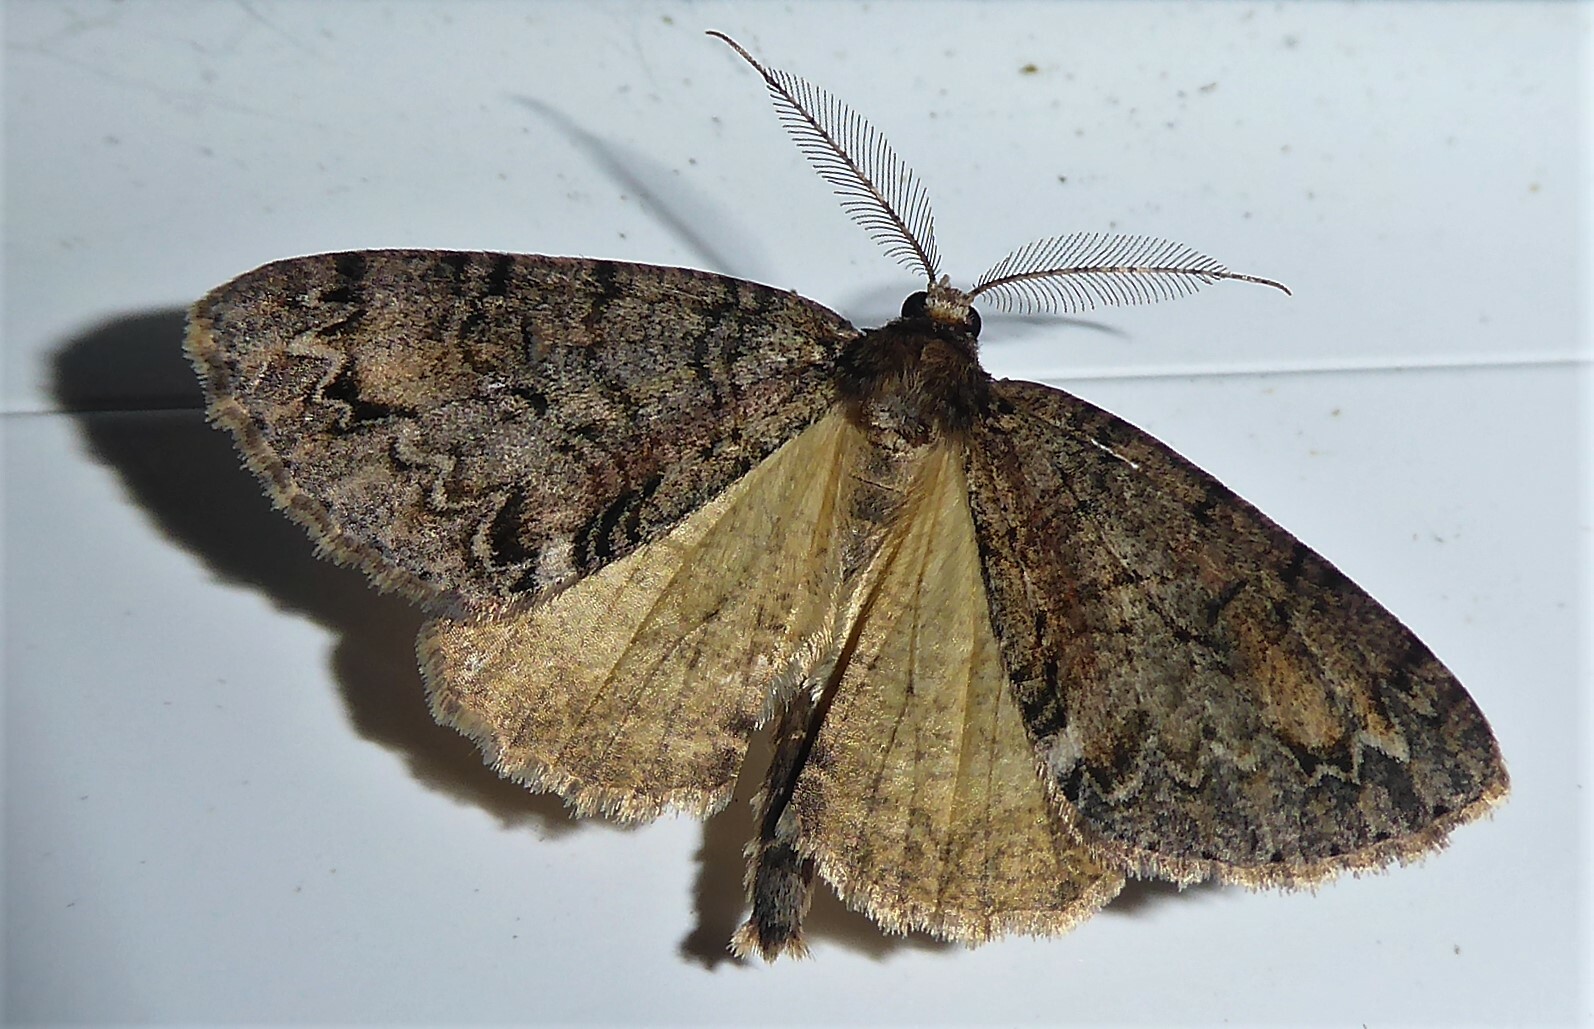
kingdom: Animalia
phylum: Arthropoda
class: Insecta
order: Lepidoptera
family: Geometridae
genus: Pseudocoremia
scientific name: Pseudocoremia suavis
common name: Common forest looper
